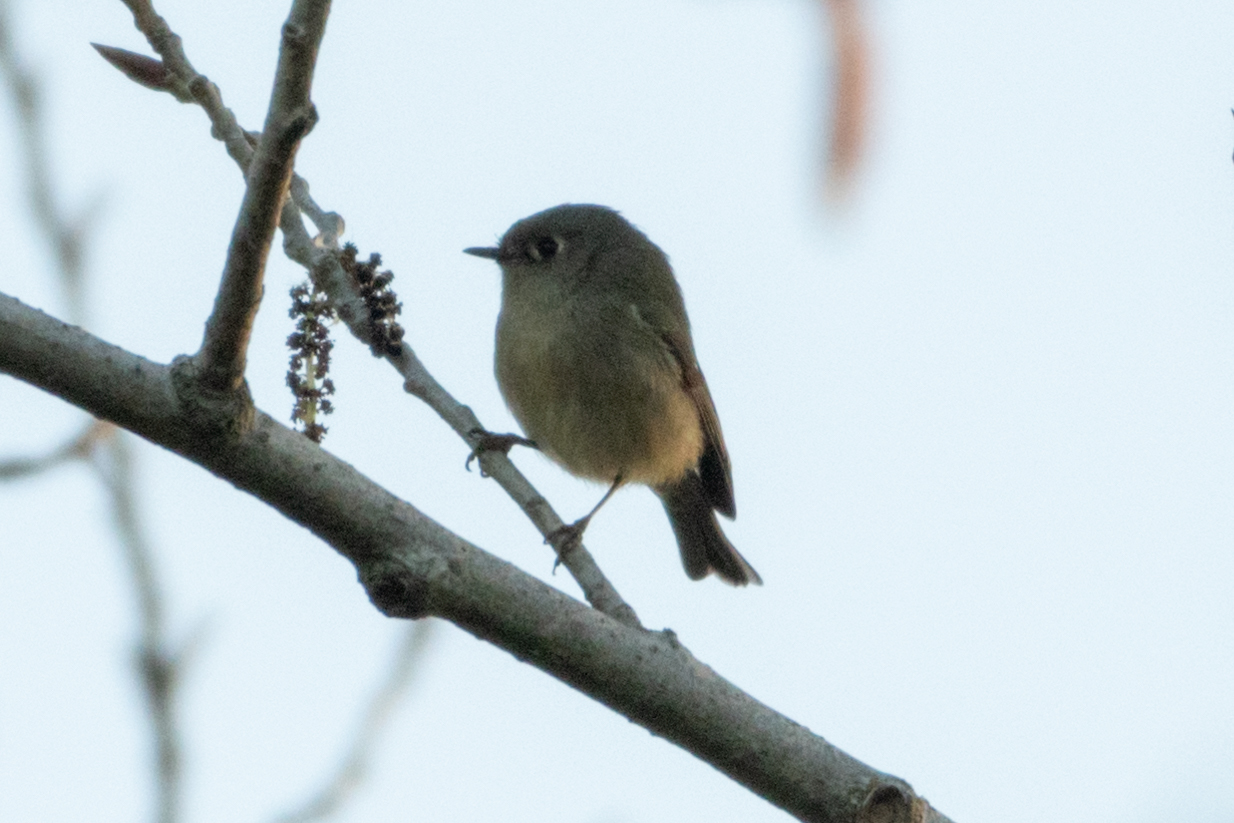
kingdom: Animalia
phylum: Chordata
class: Aves
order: Passeriformes
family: Regulidae
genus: Regulus
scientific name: Regulus calendula
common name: Ruby-crowned kinglet
